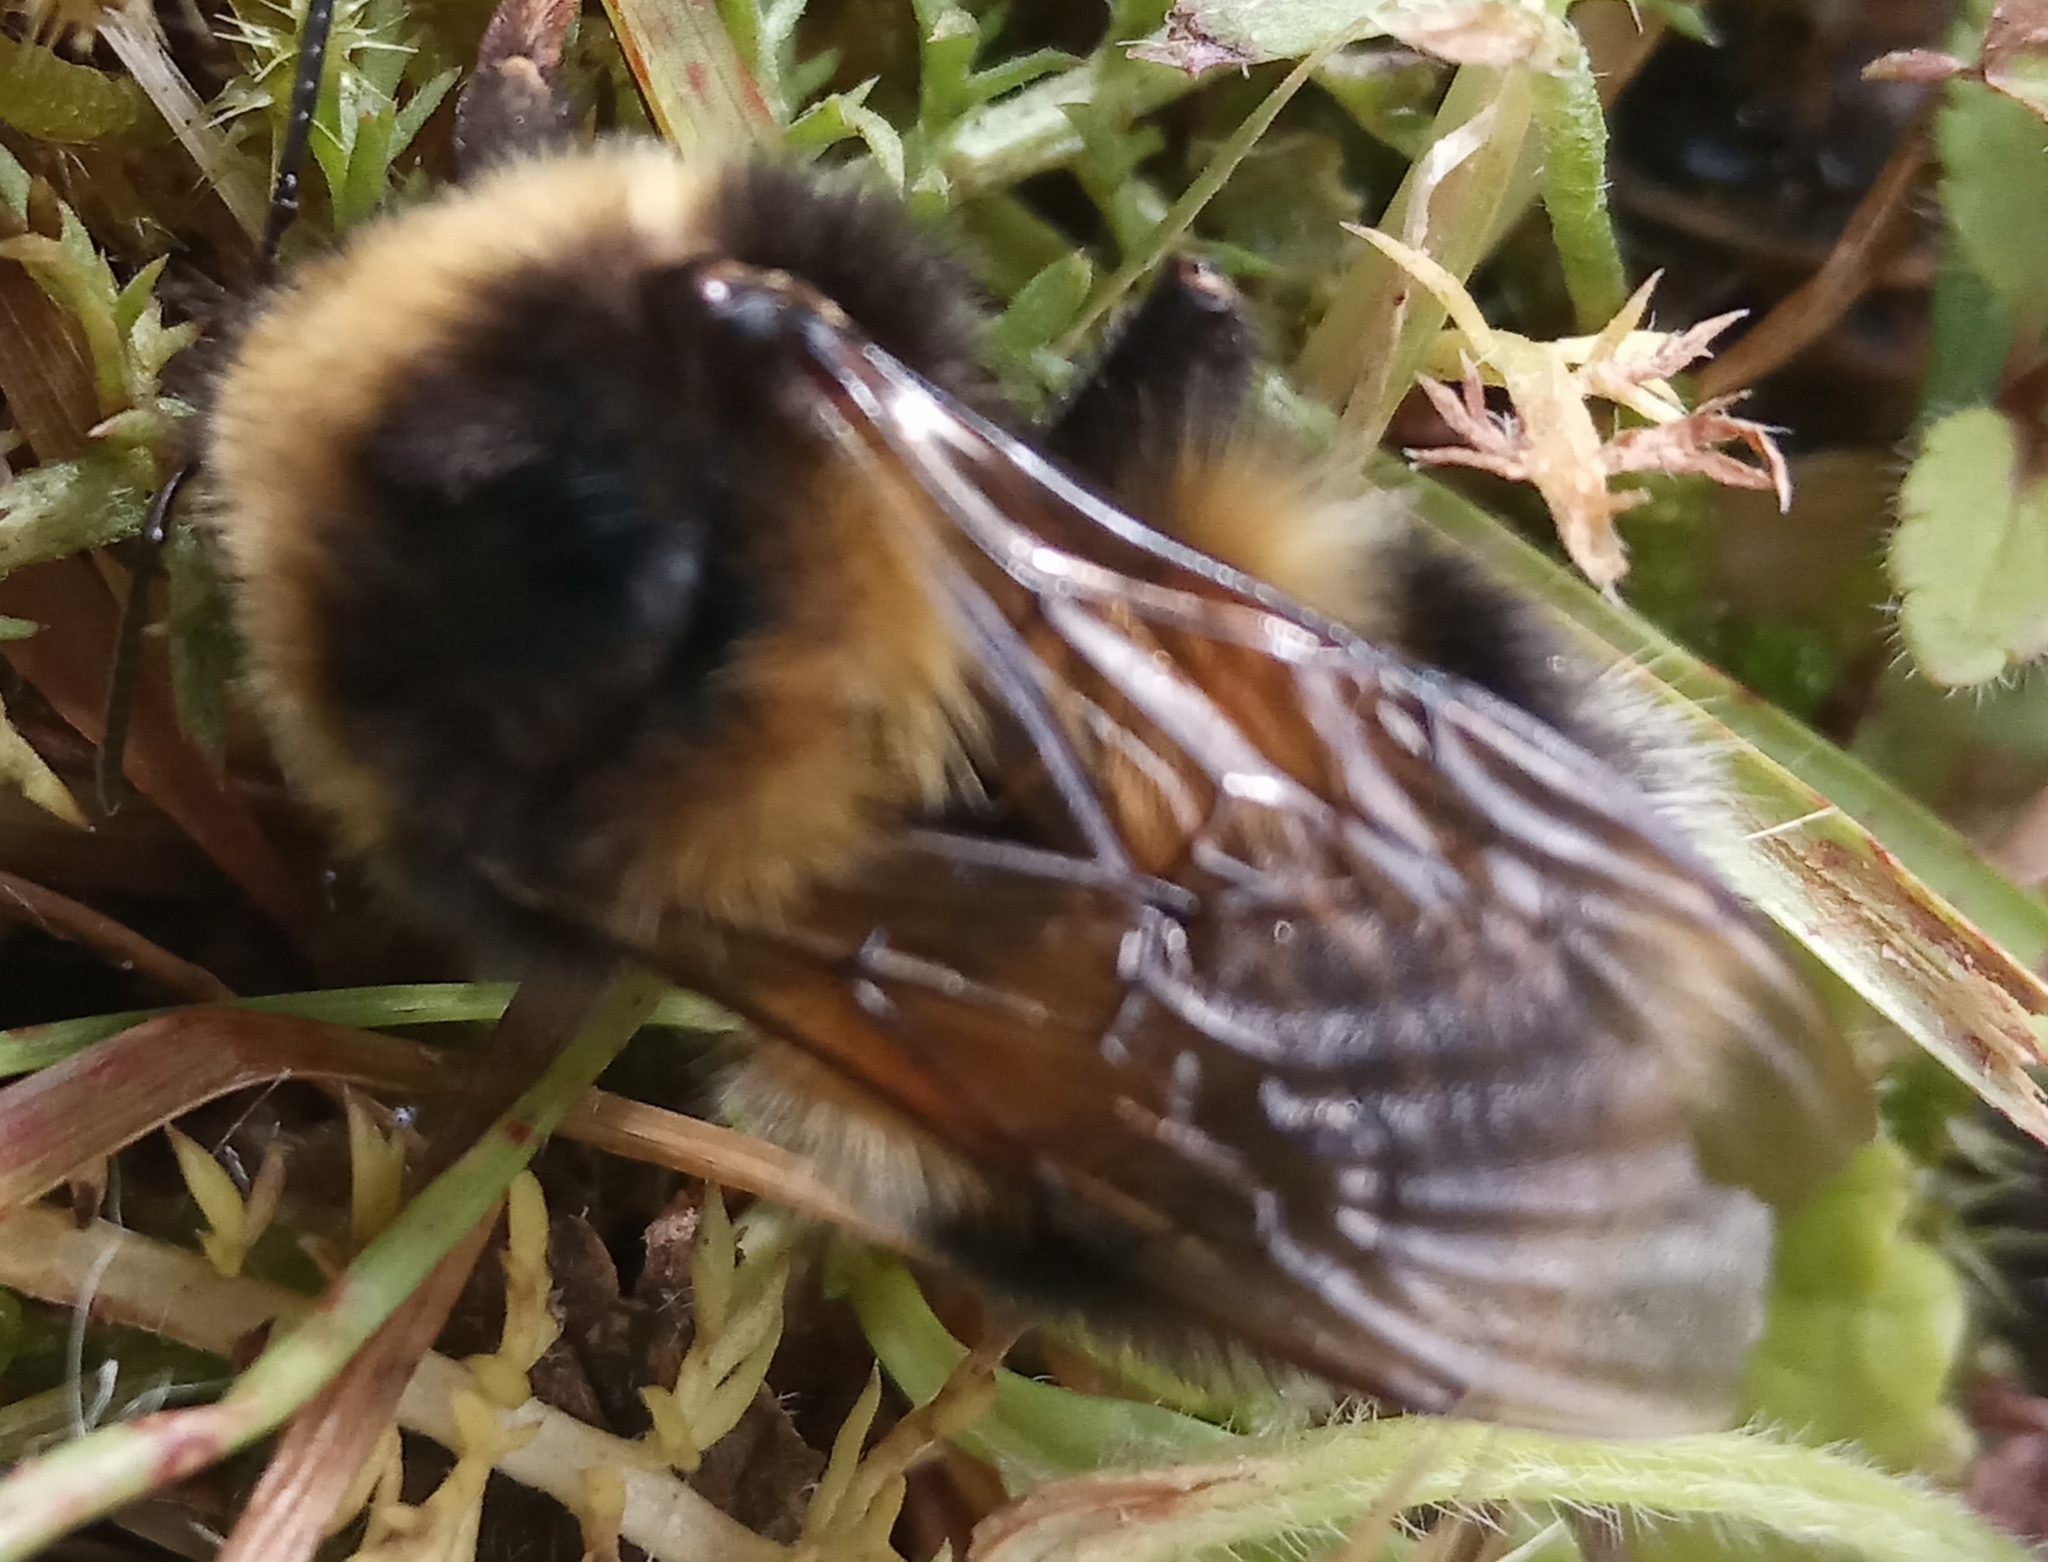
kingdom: Animalia
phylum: Arthropoda
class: Insecta
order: Hymenoptera
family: Apidae
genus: Bombus
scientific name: Bombus hortorum
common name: Garden bumblebee
